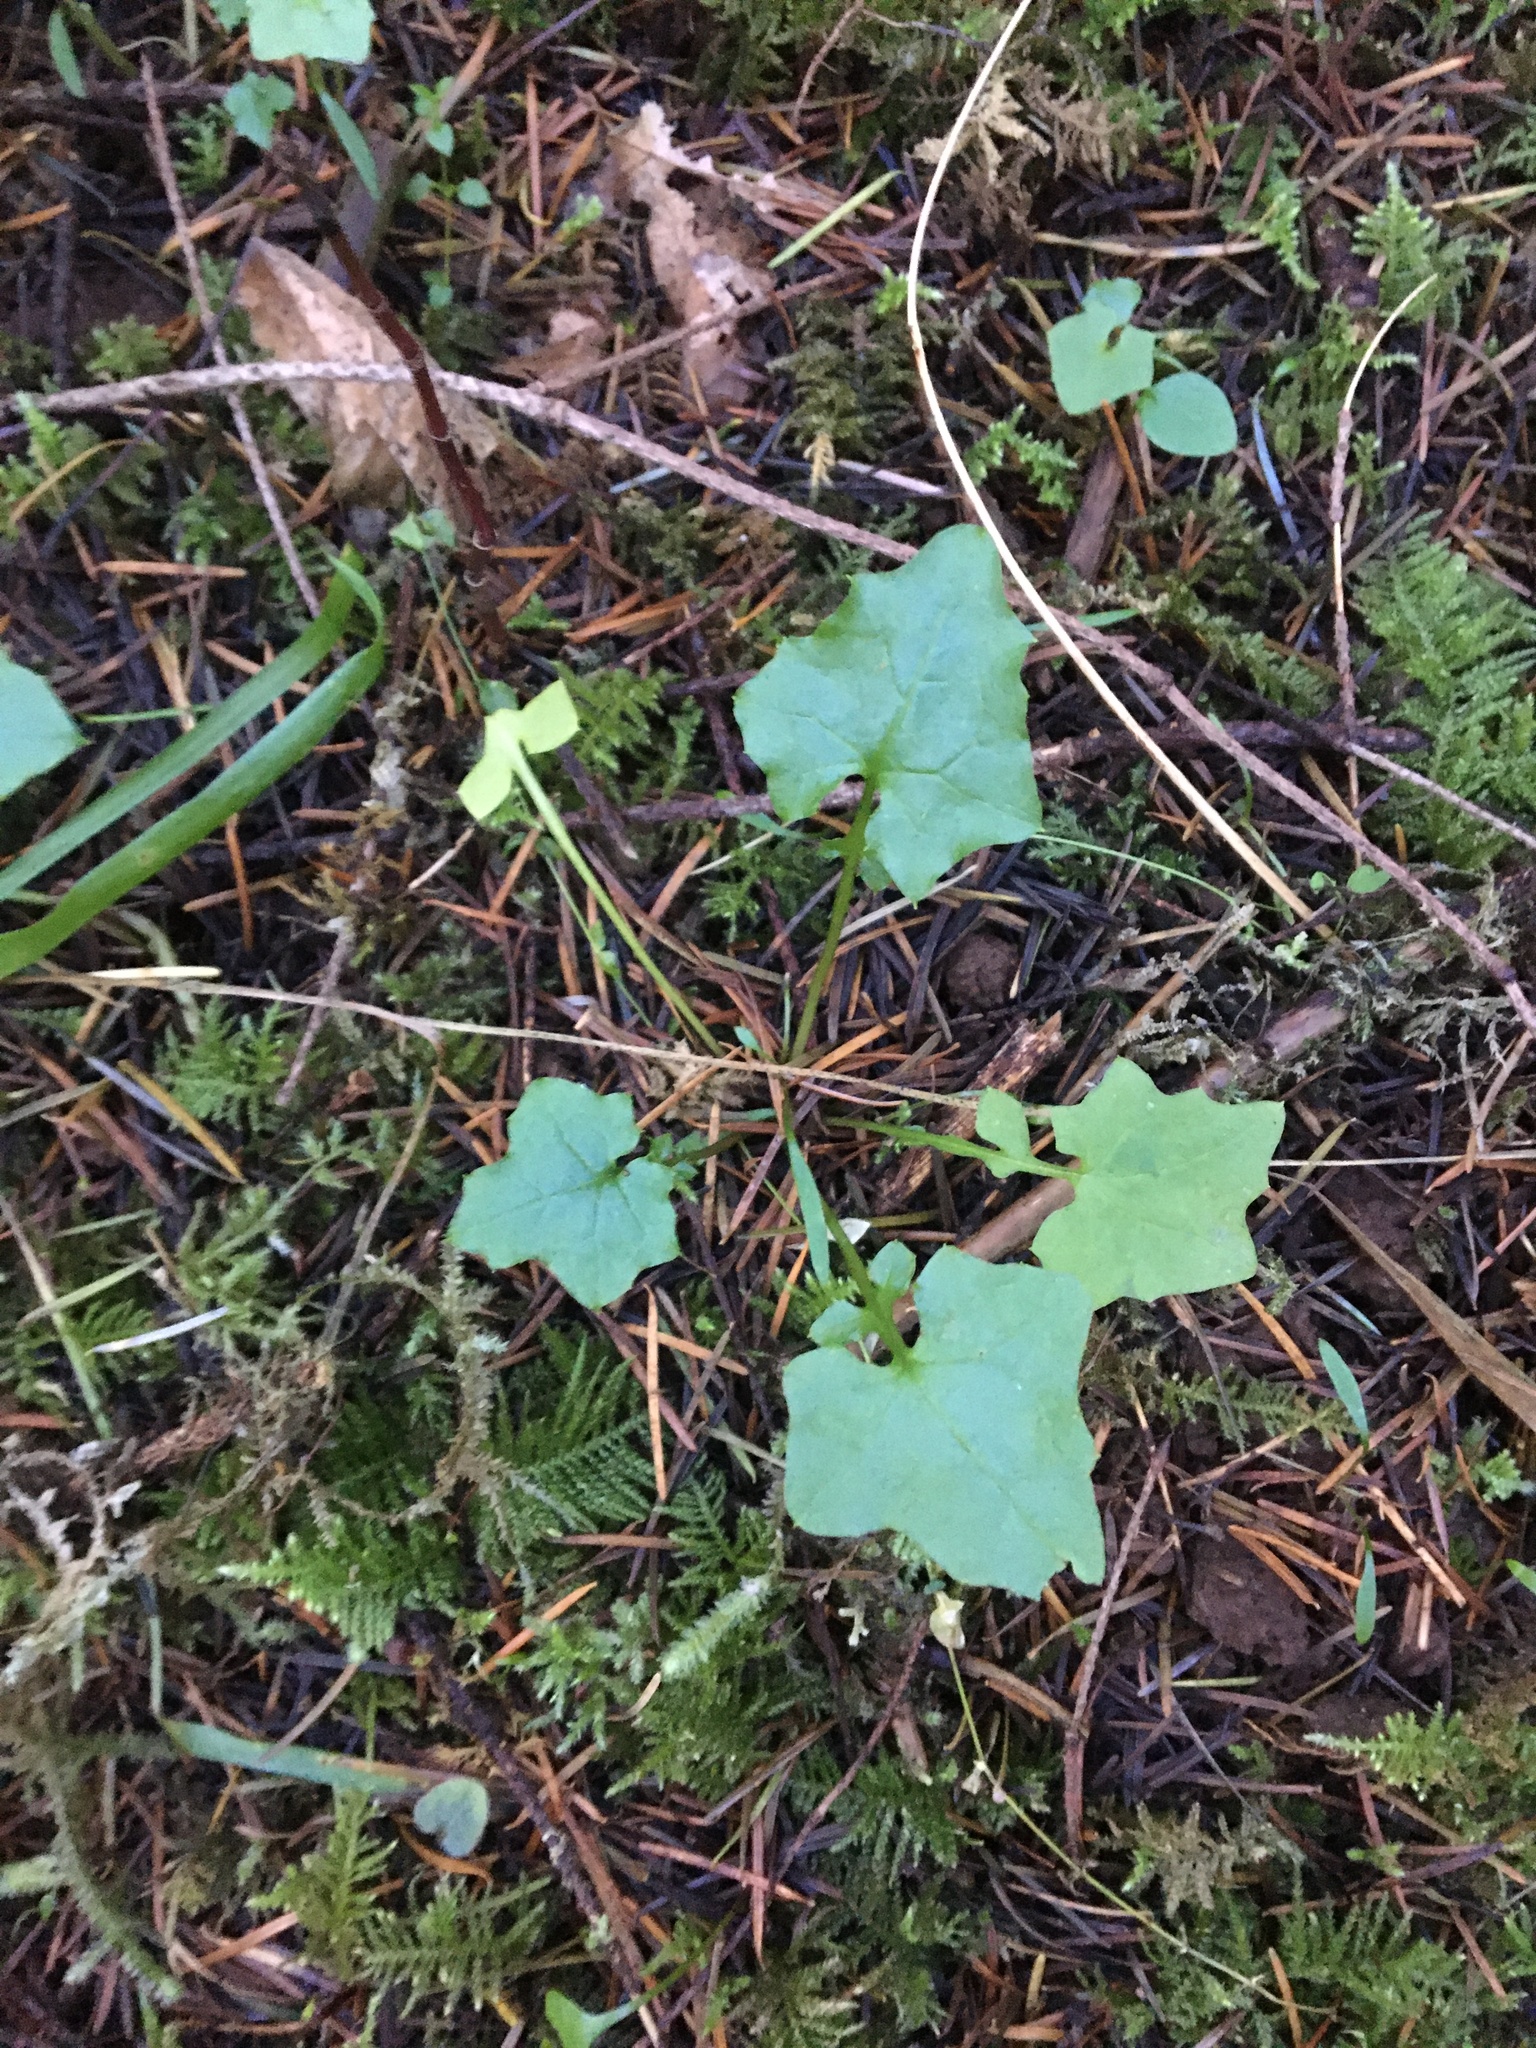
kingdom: Plantae
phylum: Tracheophyta
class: Magnoliopsida
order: Asterales
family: Asteraceae
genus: Mycelis
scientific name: Mycelis muralis
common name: Wall lettuce
